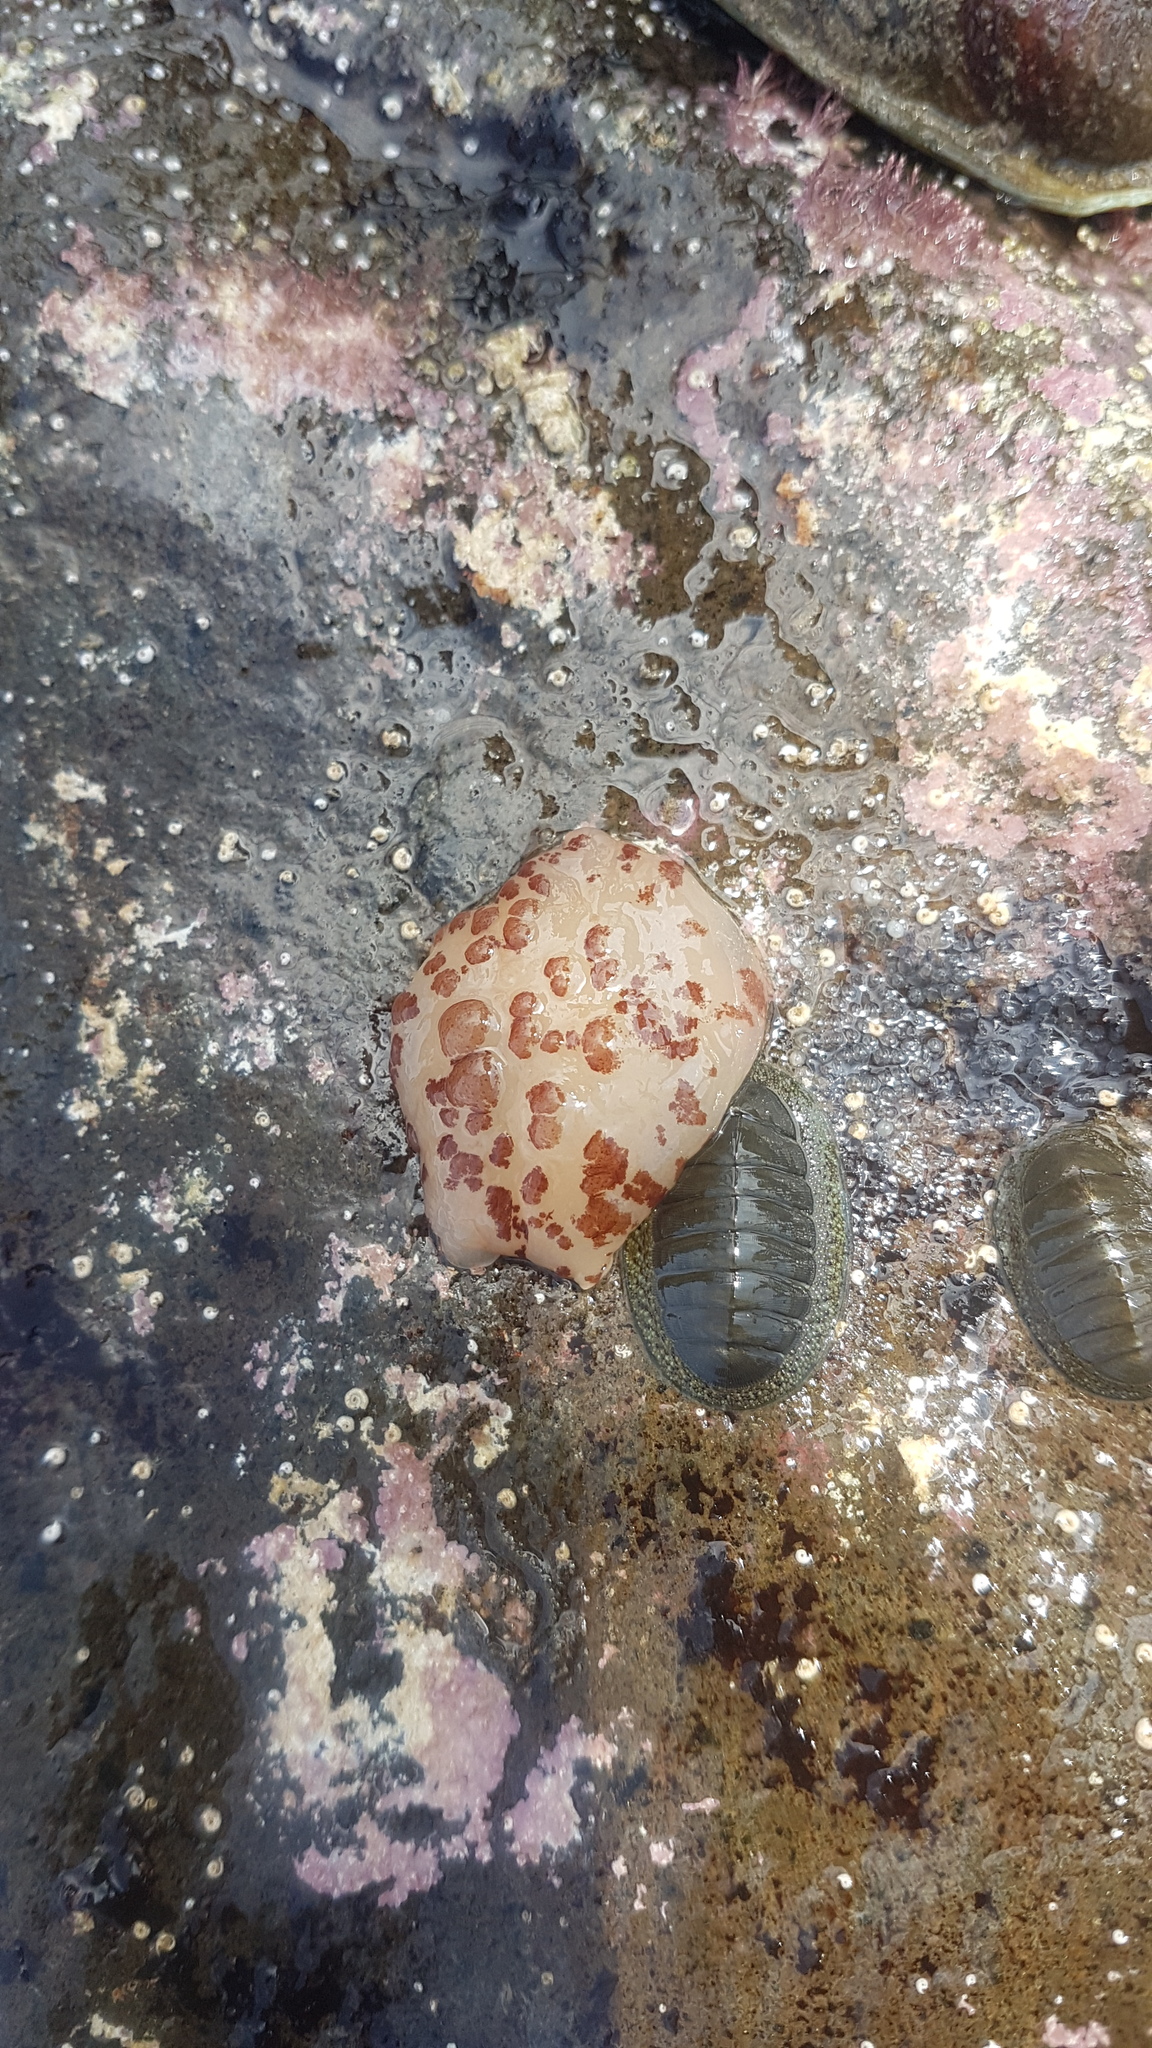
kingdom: Animalia
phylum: Mollusca
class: Gastropoda
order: Pleurobranchida
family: Pleurobranchidae
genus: Berthella
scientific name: Berthella ornata
